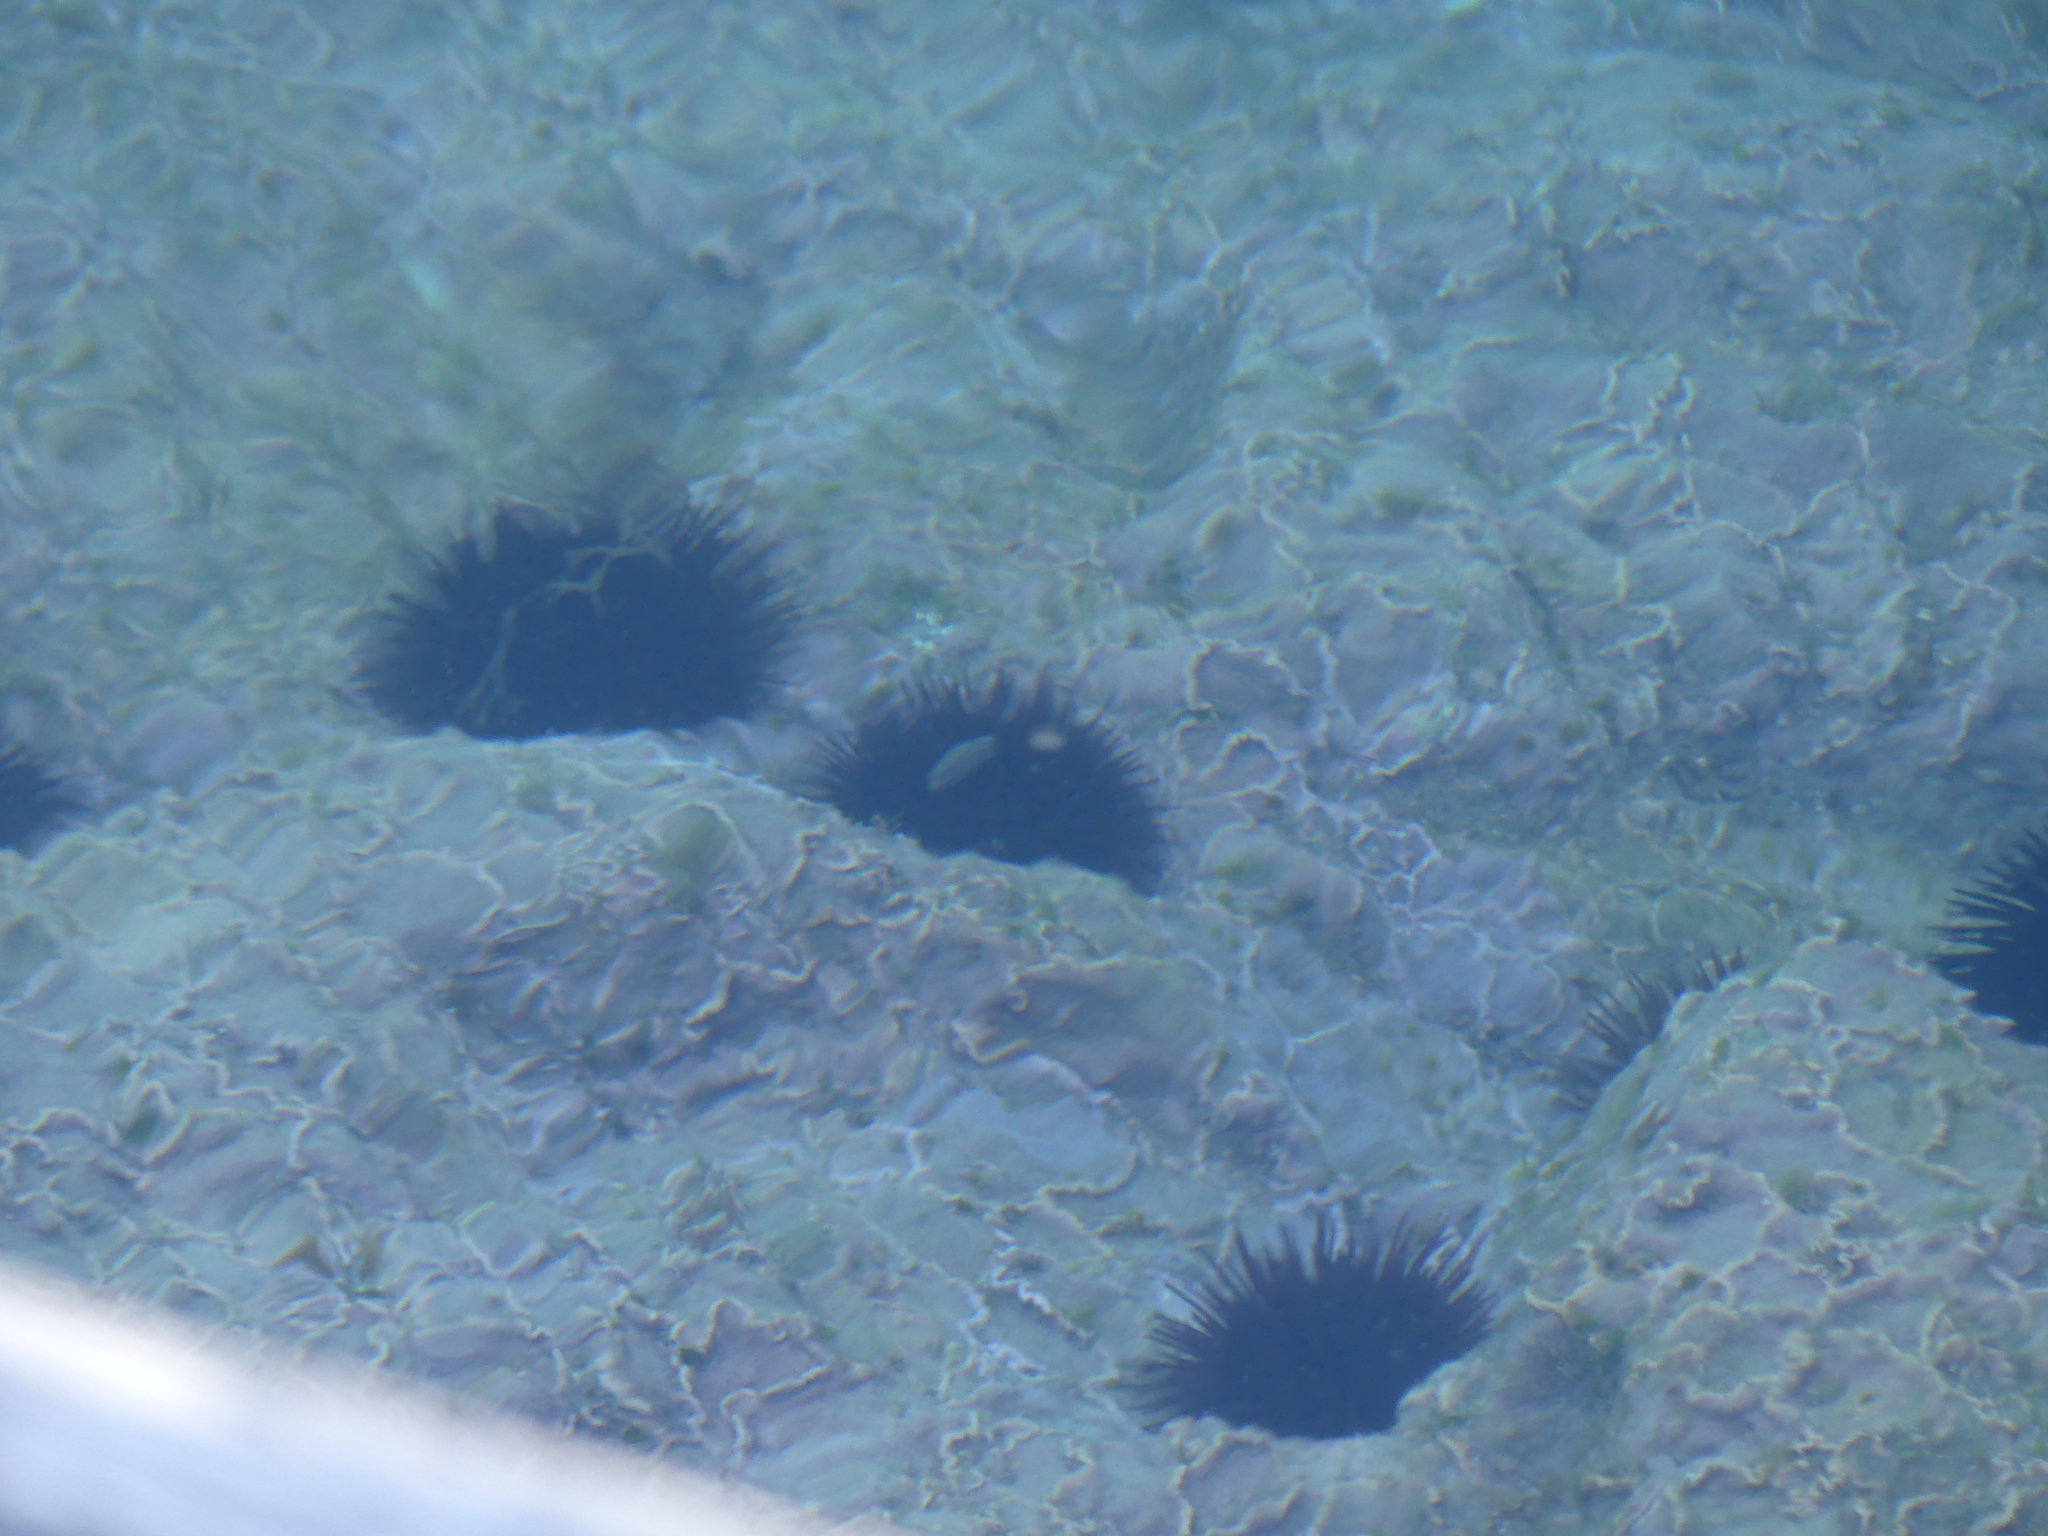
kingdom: Animalia
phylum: Echinodermata
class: Echinoidea
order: Arbacioida
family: Arbaciidae
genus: Arbacia
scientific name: Arbacia lixula
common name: Black sea urchin
